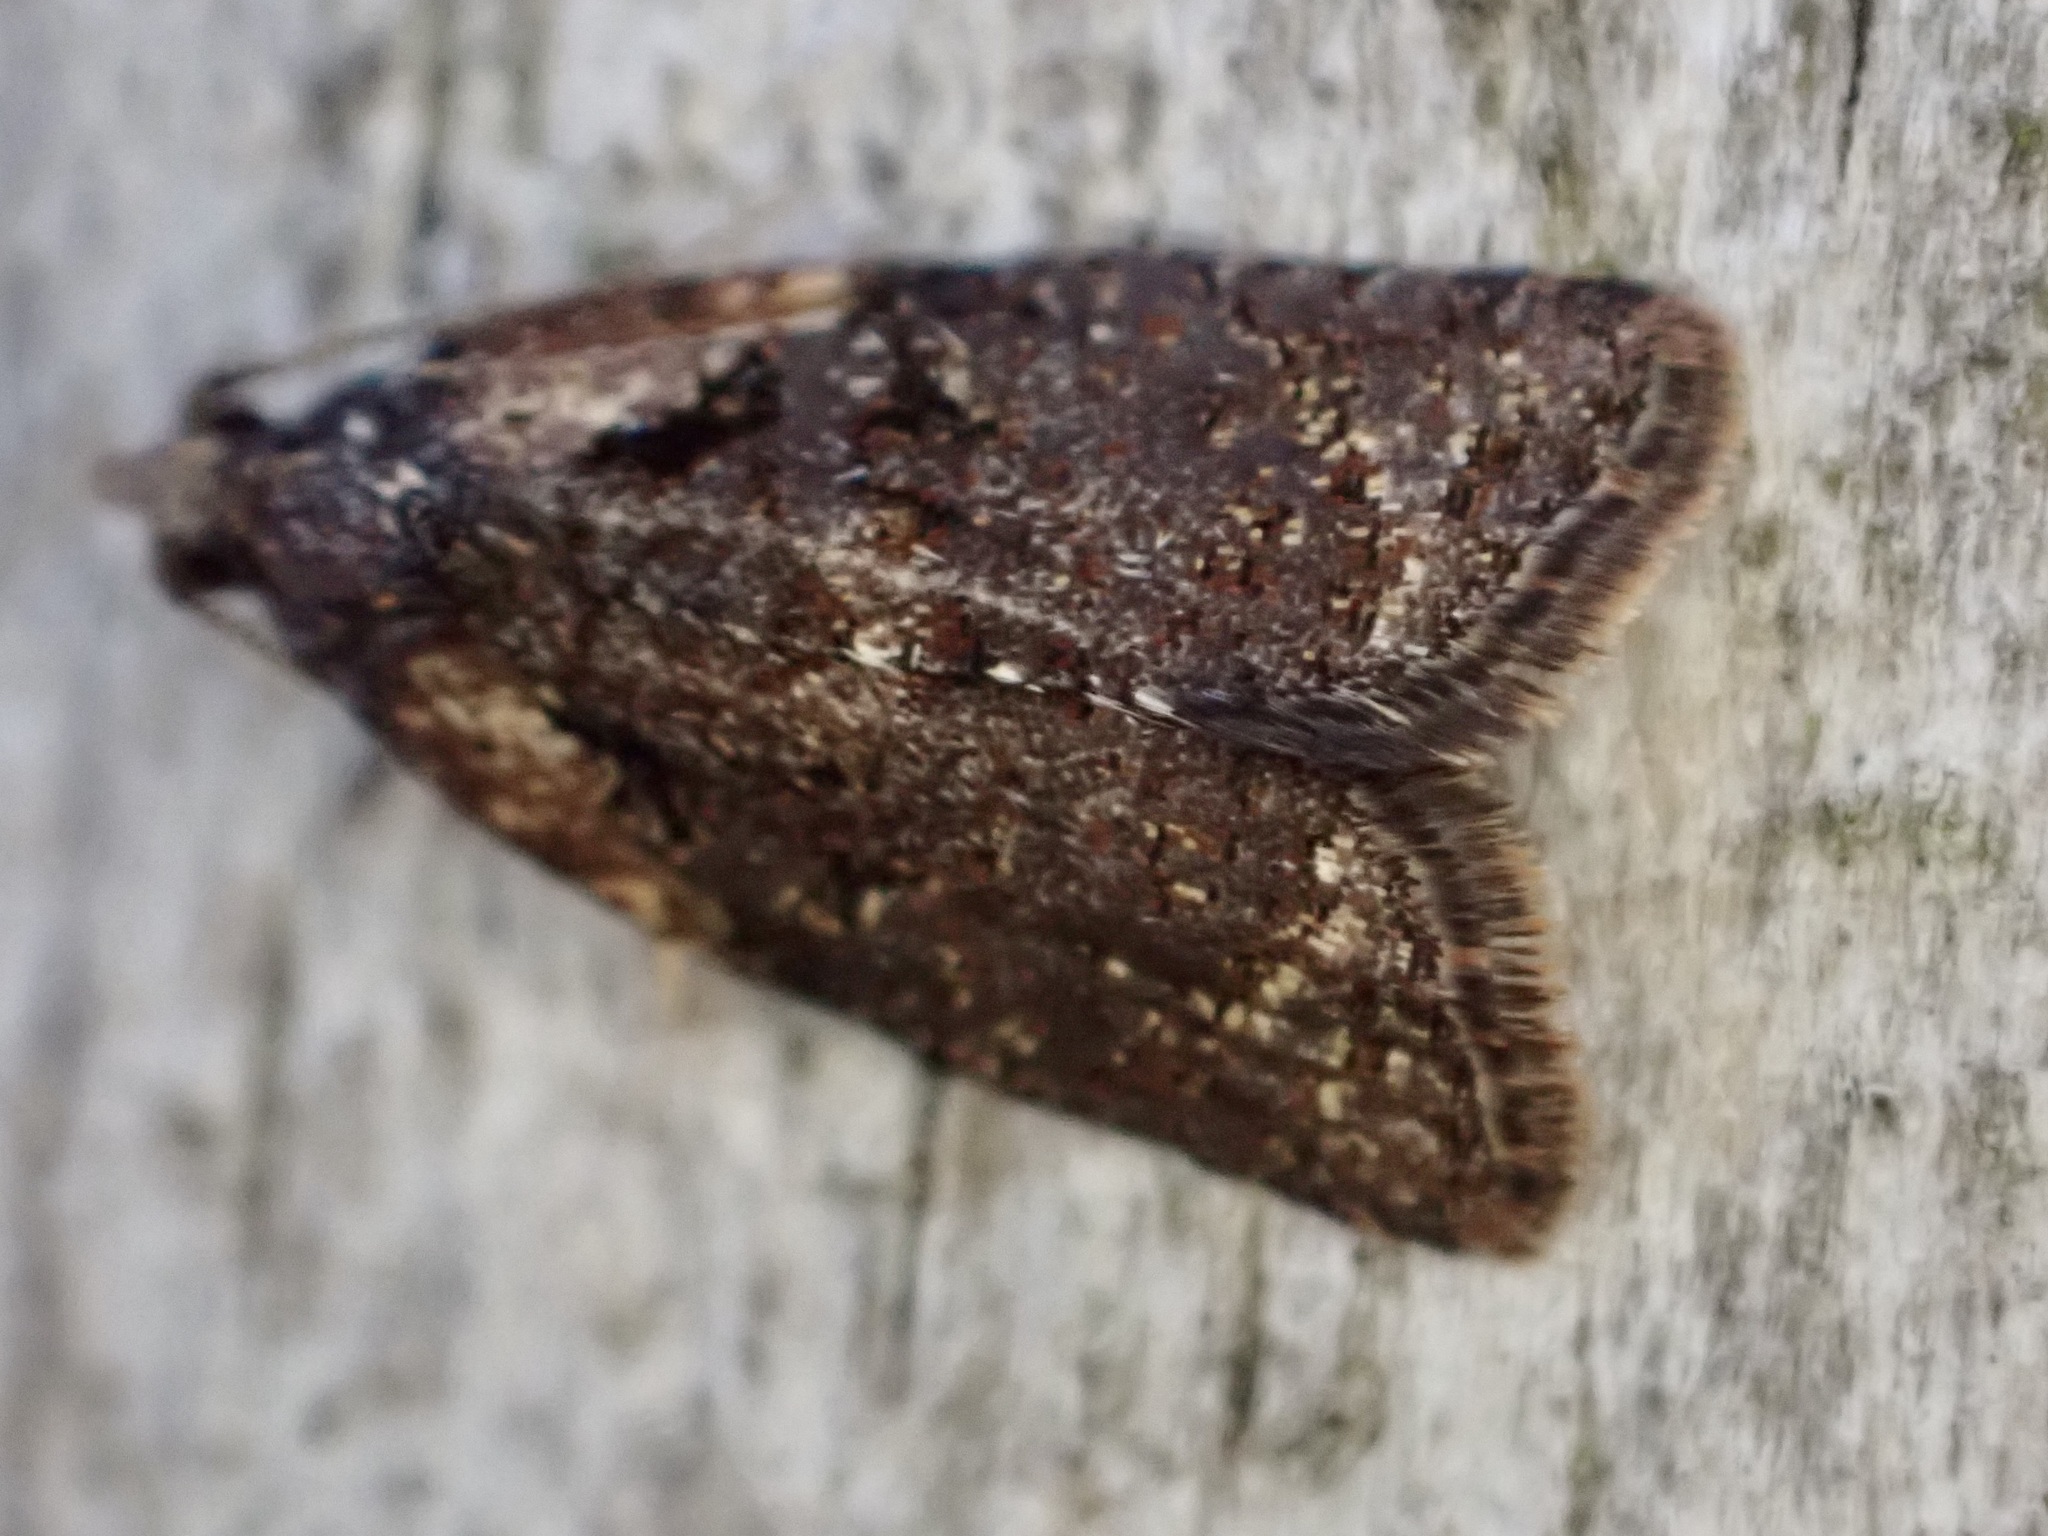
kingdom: Animalia
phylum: Arthropoda
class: Insecta
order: Lepidoptera
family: Tortricidae
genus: Capua
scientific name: Capua intractana
